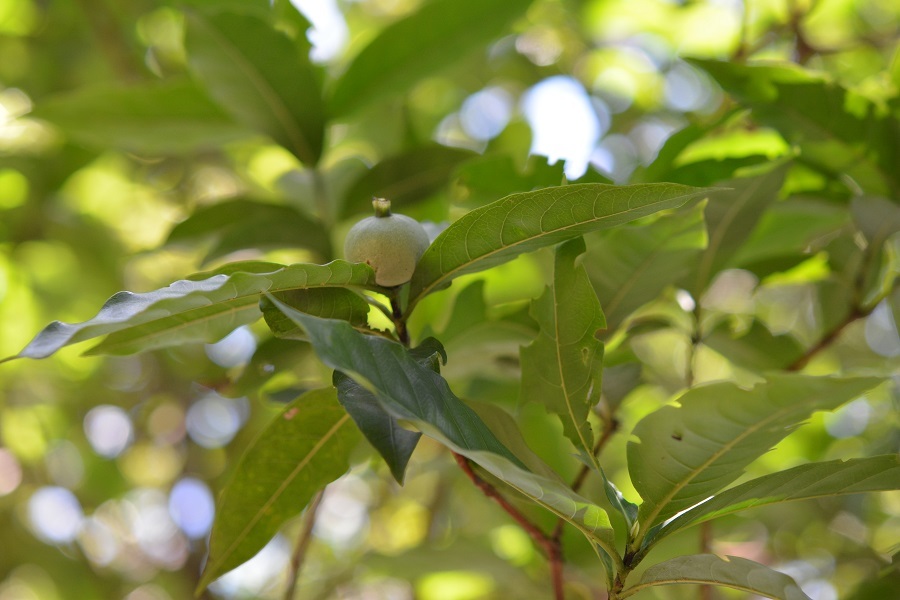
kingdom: Plantae
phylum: Tracheophyta
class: Magnoliopsida
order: Gentianales
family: Rubiaceae
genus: Alibertia
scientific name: Alibertia edulis
